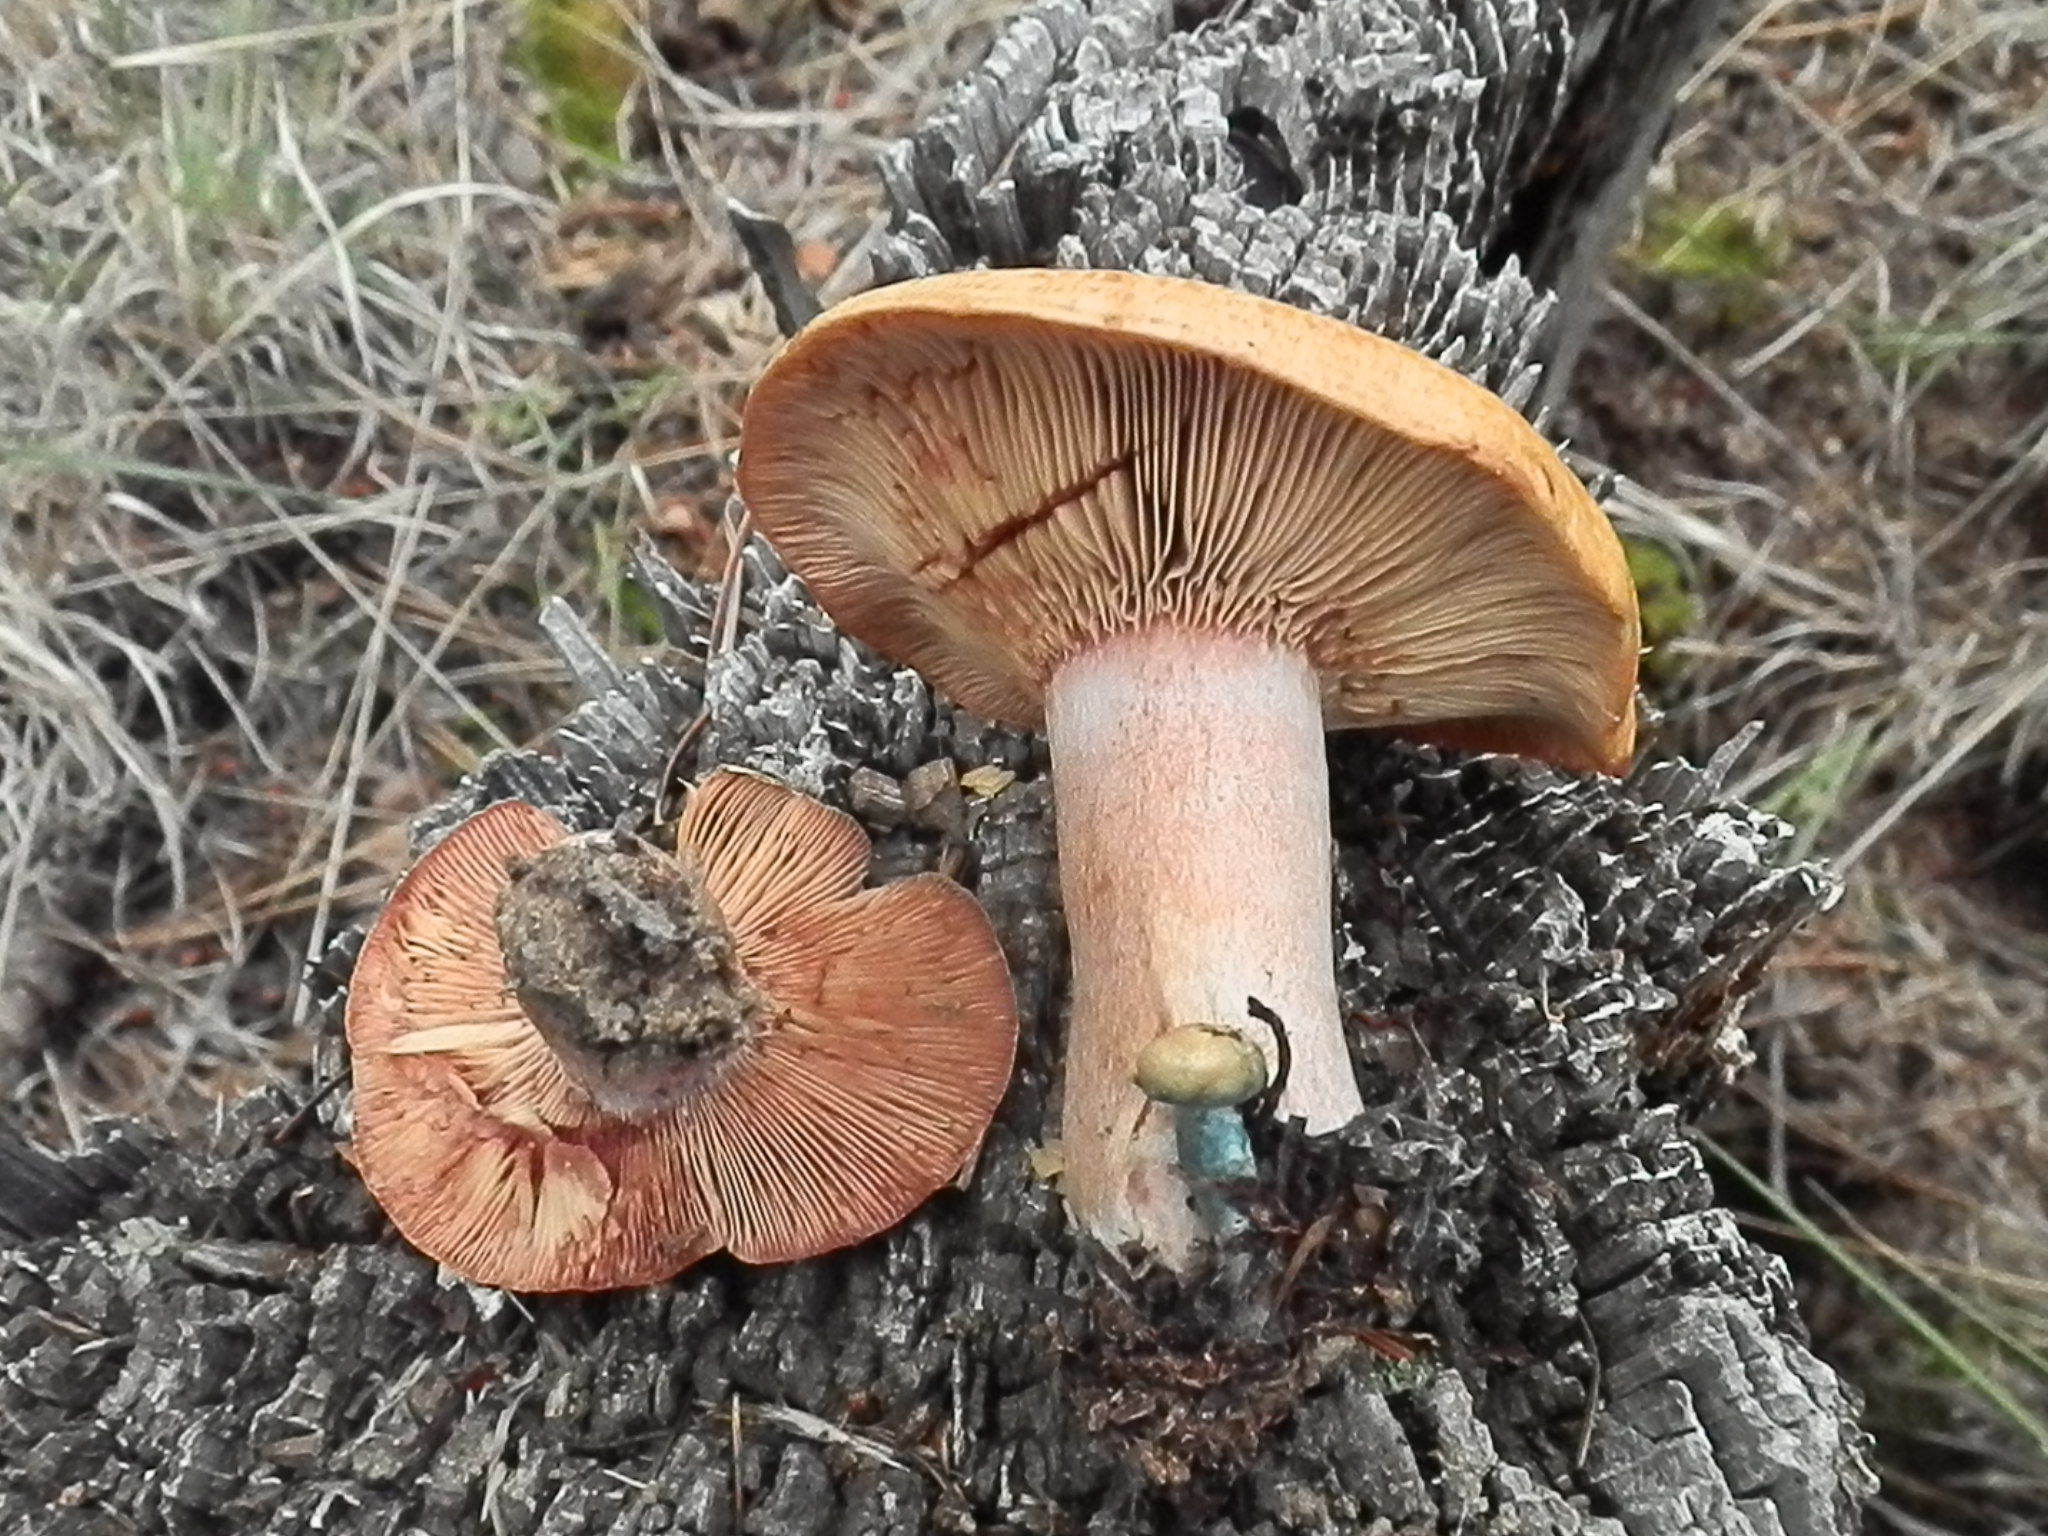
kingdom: Fungi
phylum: Basidiomycota
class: Agaricomycetes
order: Russulales
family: Russulaceae
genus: Lactarius
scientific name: Lactarius rubrilacteus
